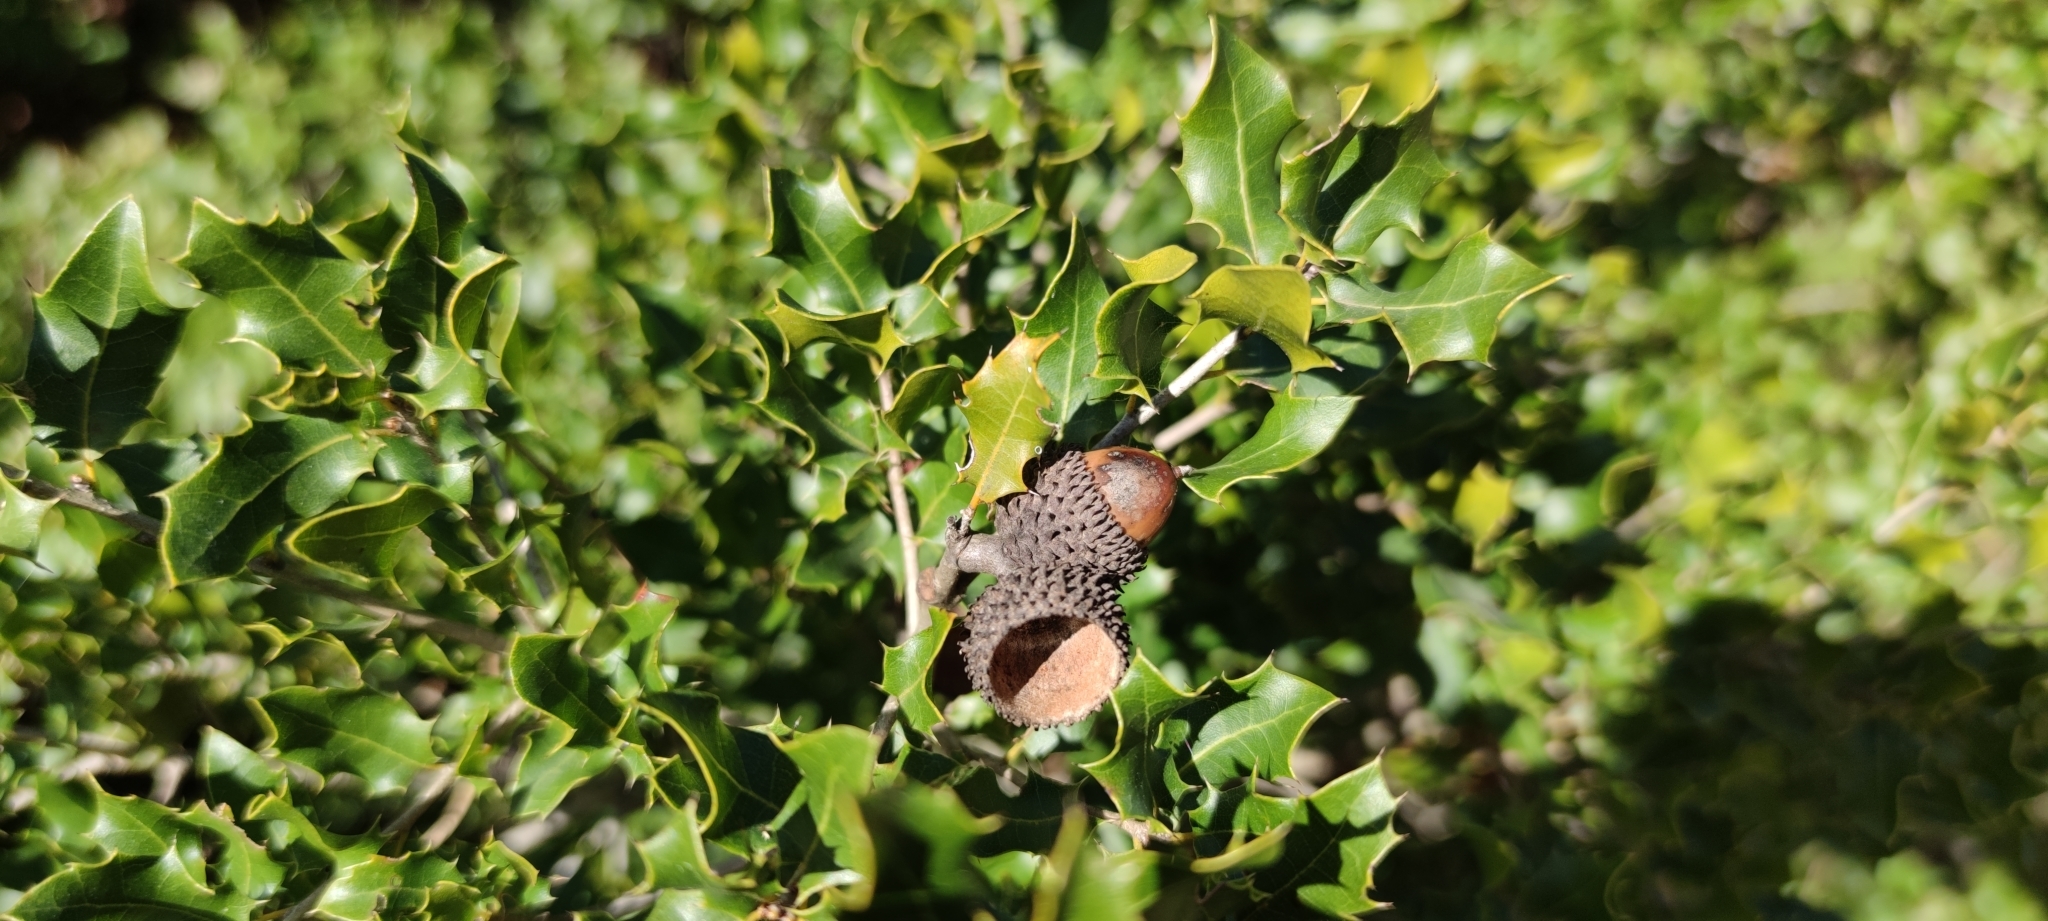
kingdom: Plantae
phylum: Tracheophyta
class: Magnoliopsida
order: Fagales
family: Fagaceae
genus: Quercus
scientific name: Quercus coccifera
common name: Kermes oak
